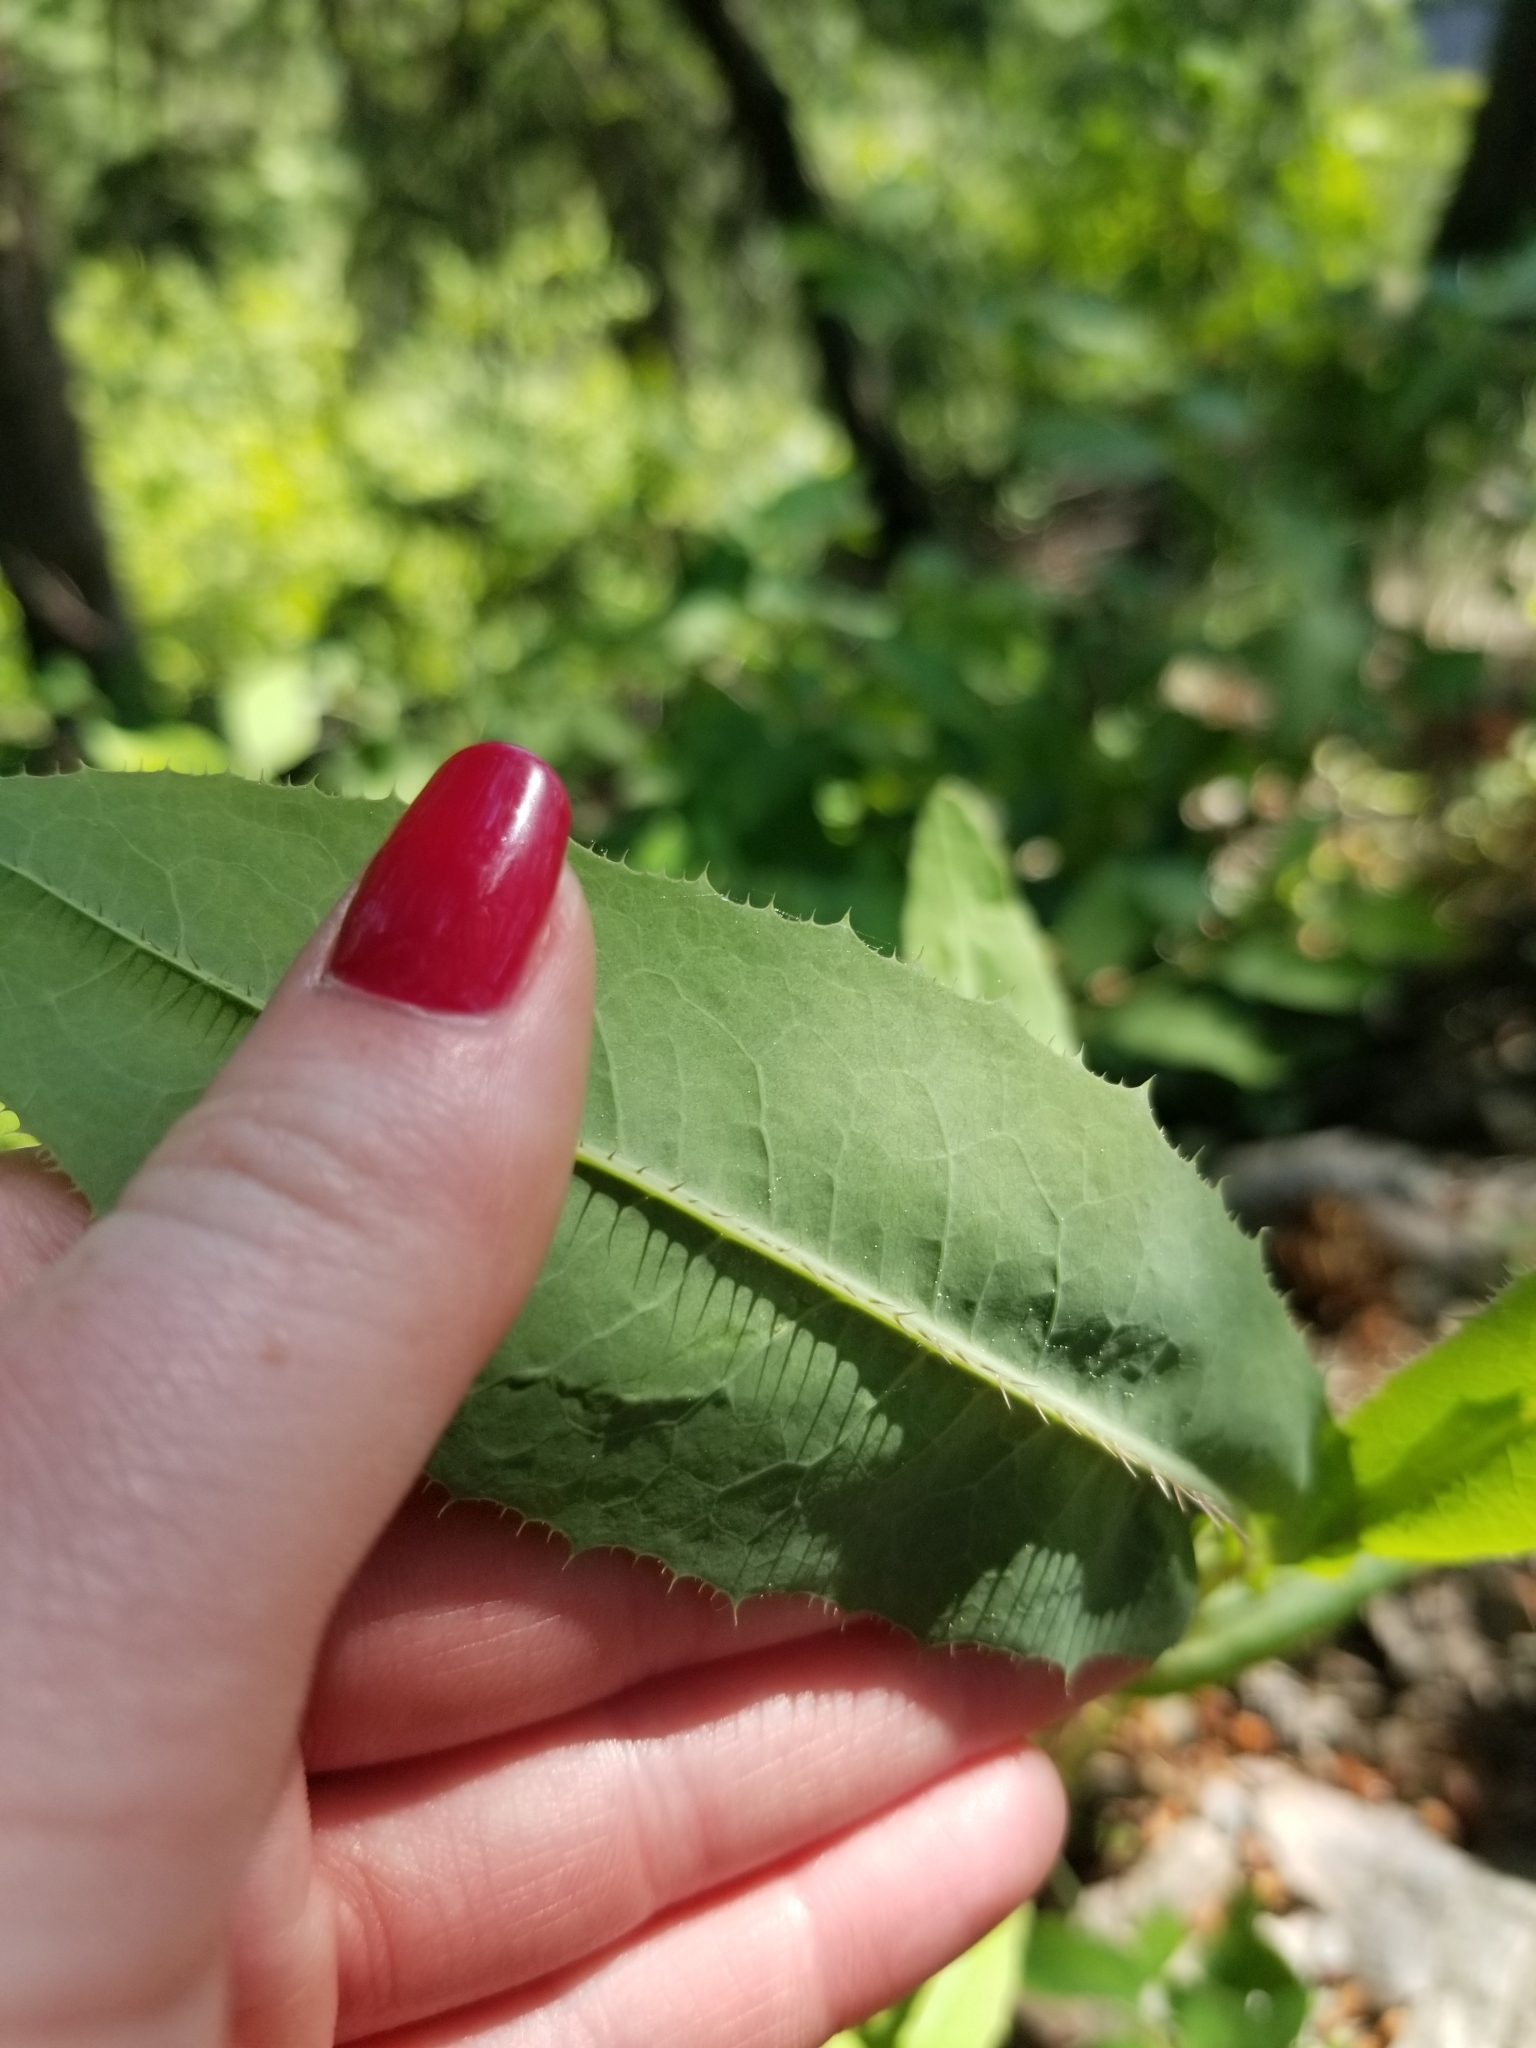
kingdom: Plantae
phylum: Tracheophyta
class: Magnoliopsida
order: Asterales
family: Asteraceae
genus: Lactuca
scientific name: Lactuca serriola
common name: Prickly lettuce
